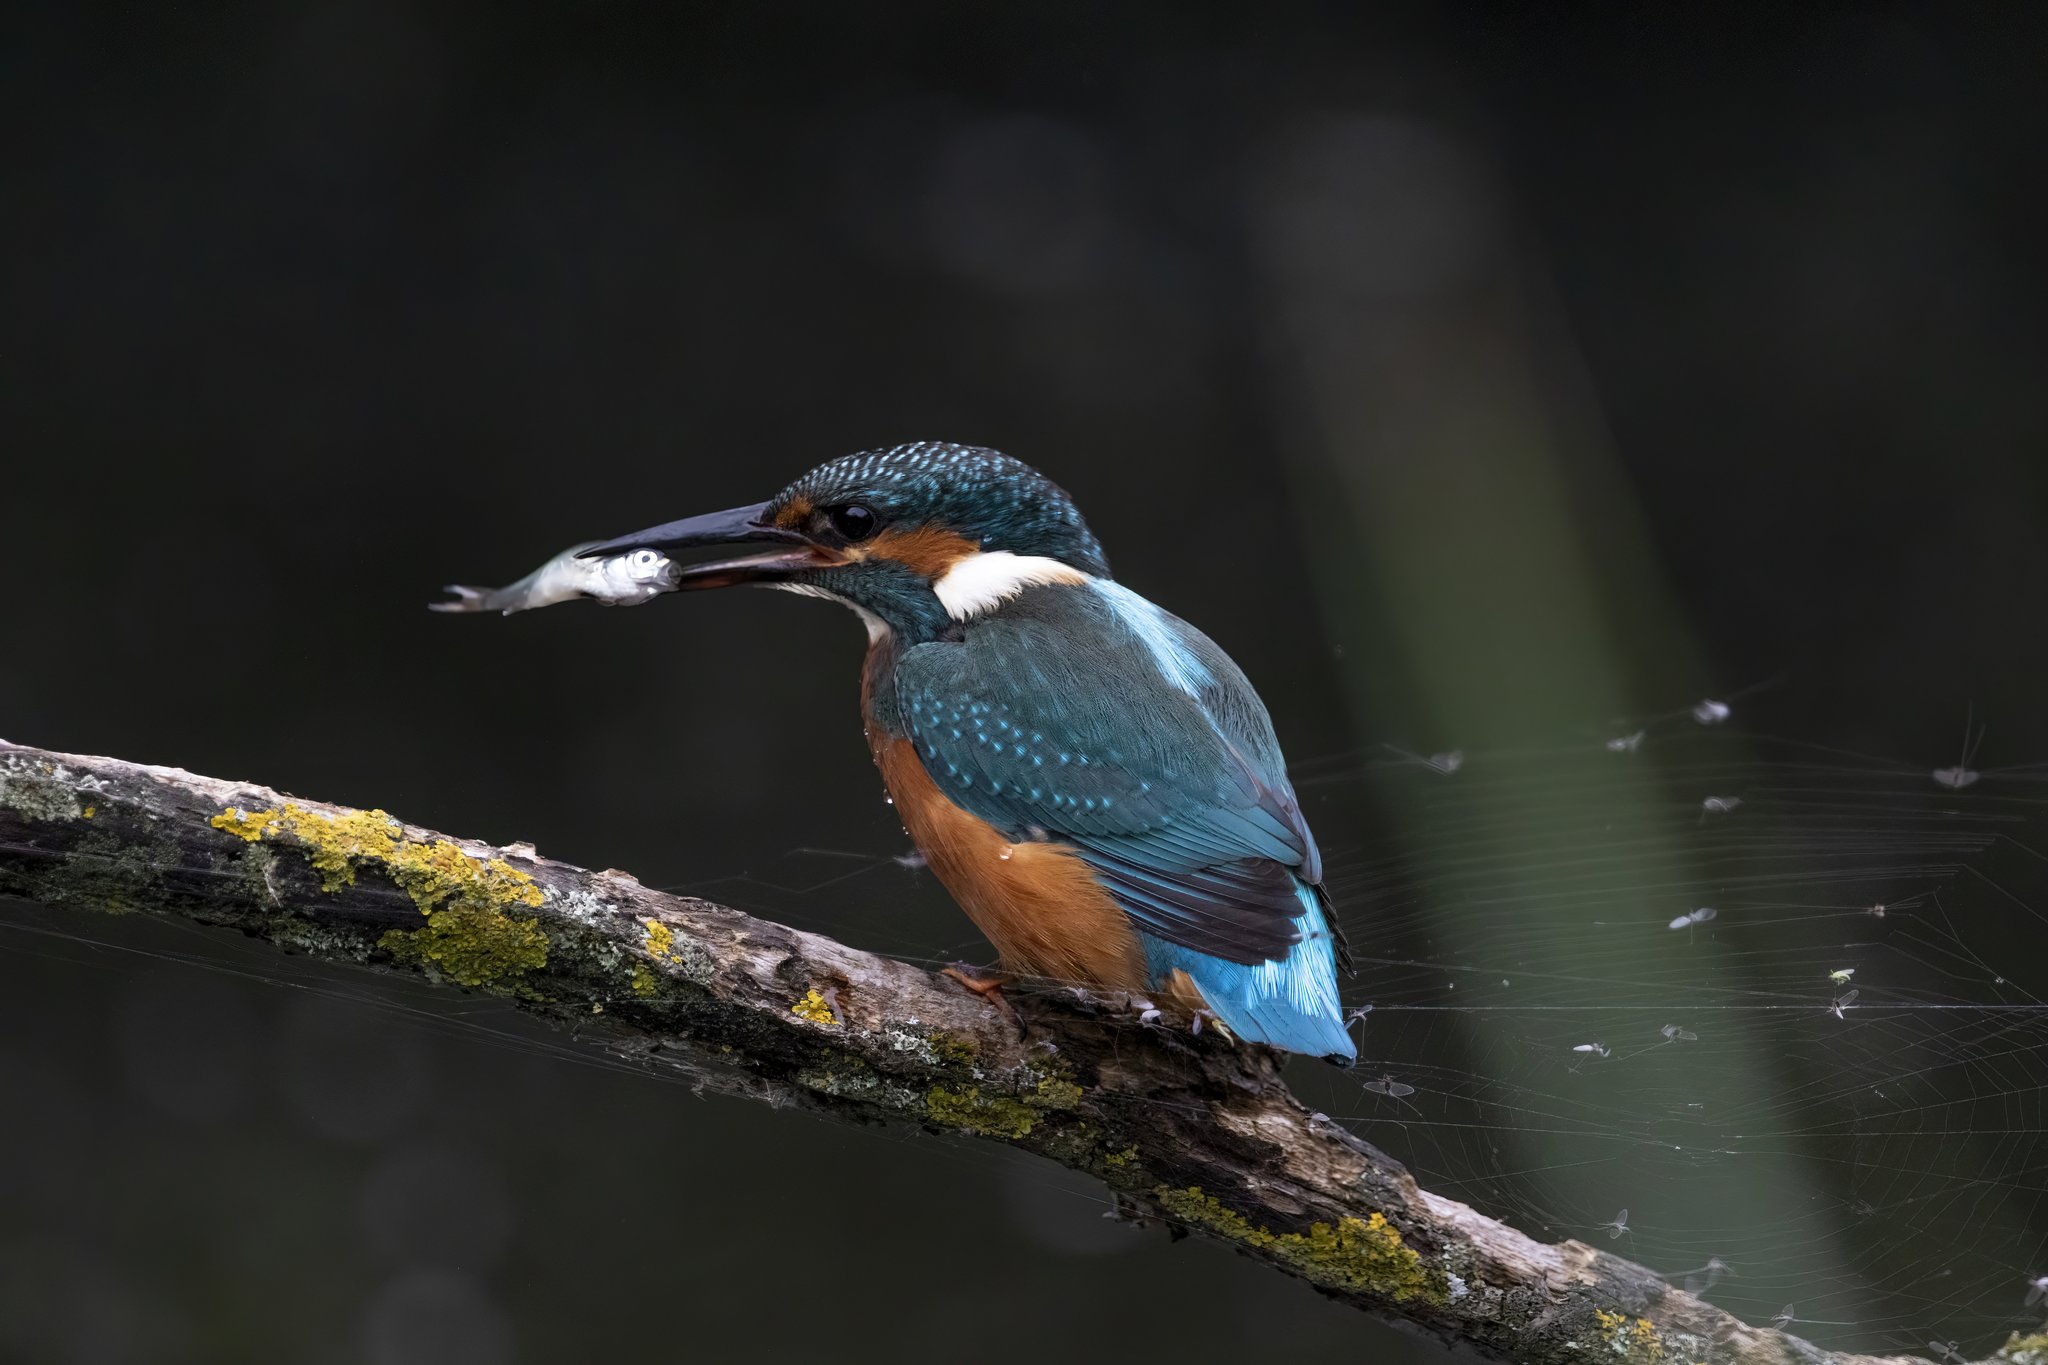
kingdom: Animalia
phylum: Chordata
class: Aves
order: Coraciiformes
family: Alcedinidae
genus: Alcedo
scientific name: Alcedo atthis
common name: Common kingfisher
